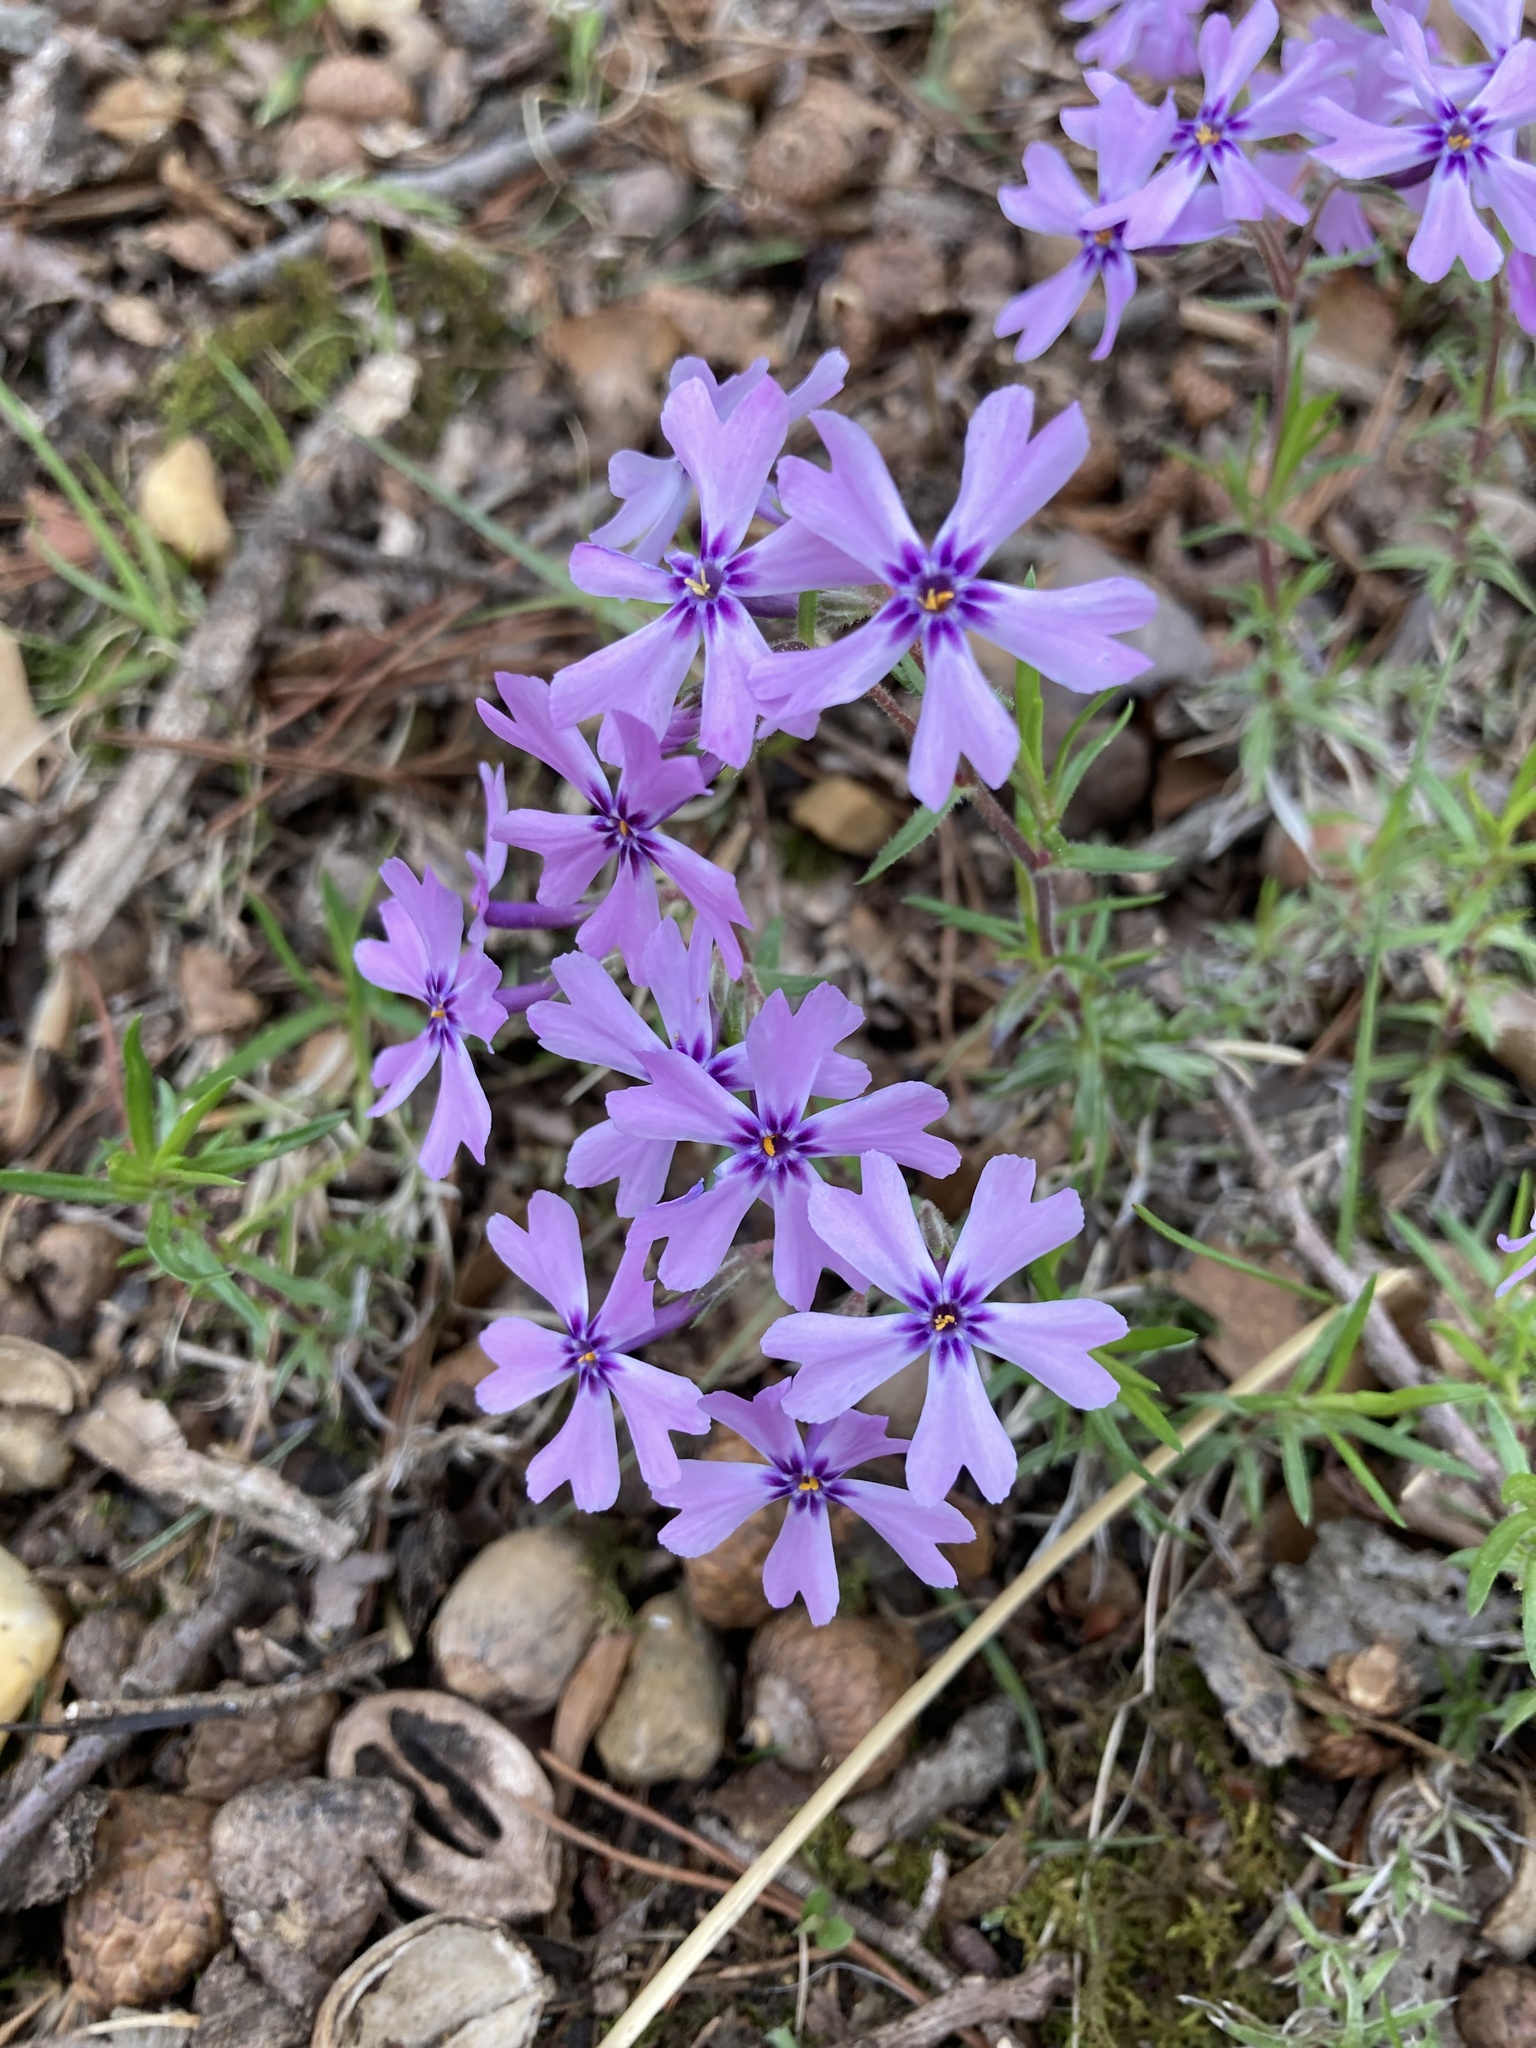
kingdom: Plantae
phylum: Tracheophyta
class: Magnoliopsida
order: Ericales
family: Polemoniaceae
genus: Phlox
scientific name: Phlox subulata
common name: Moss phlox
